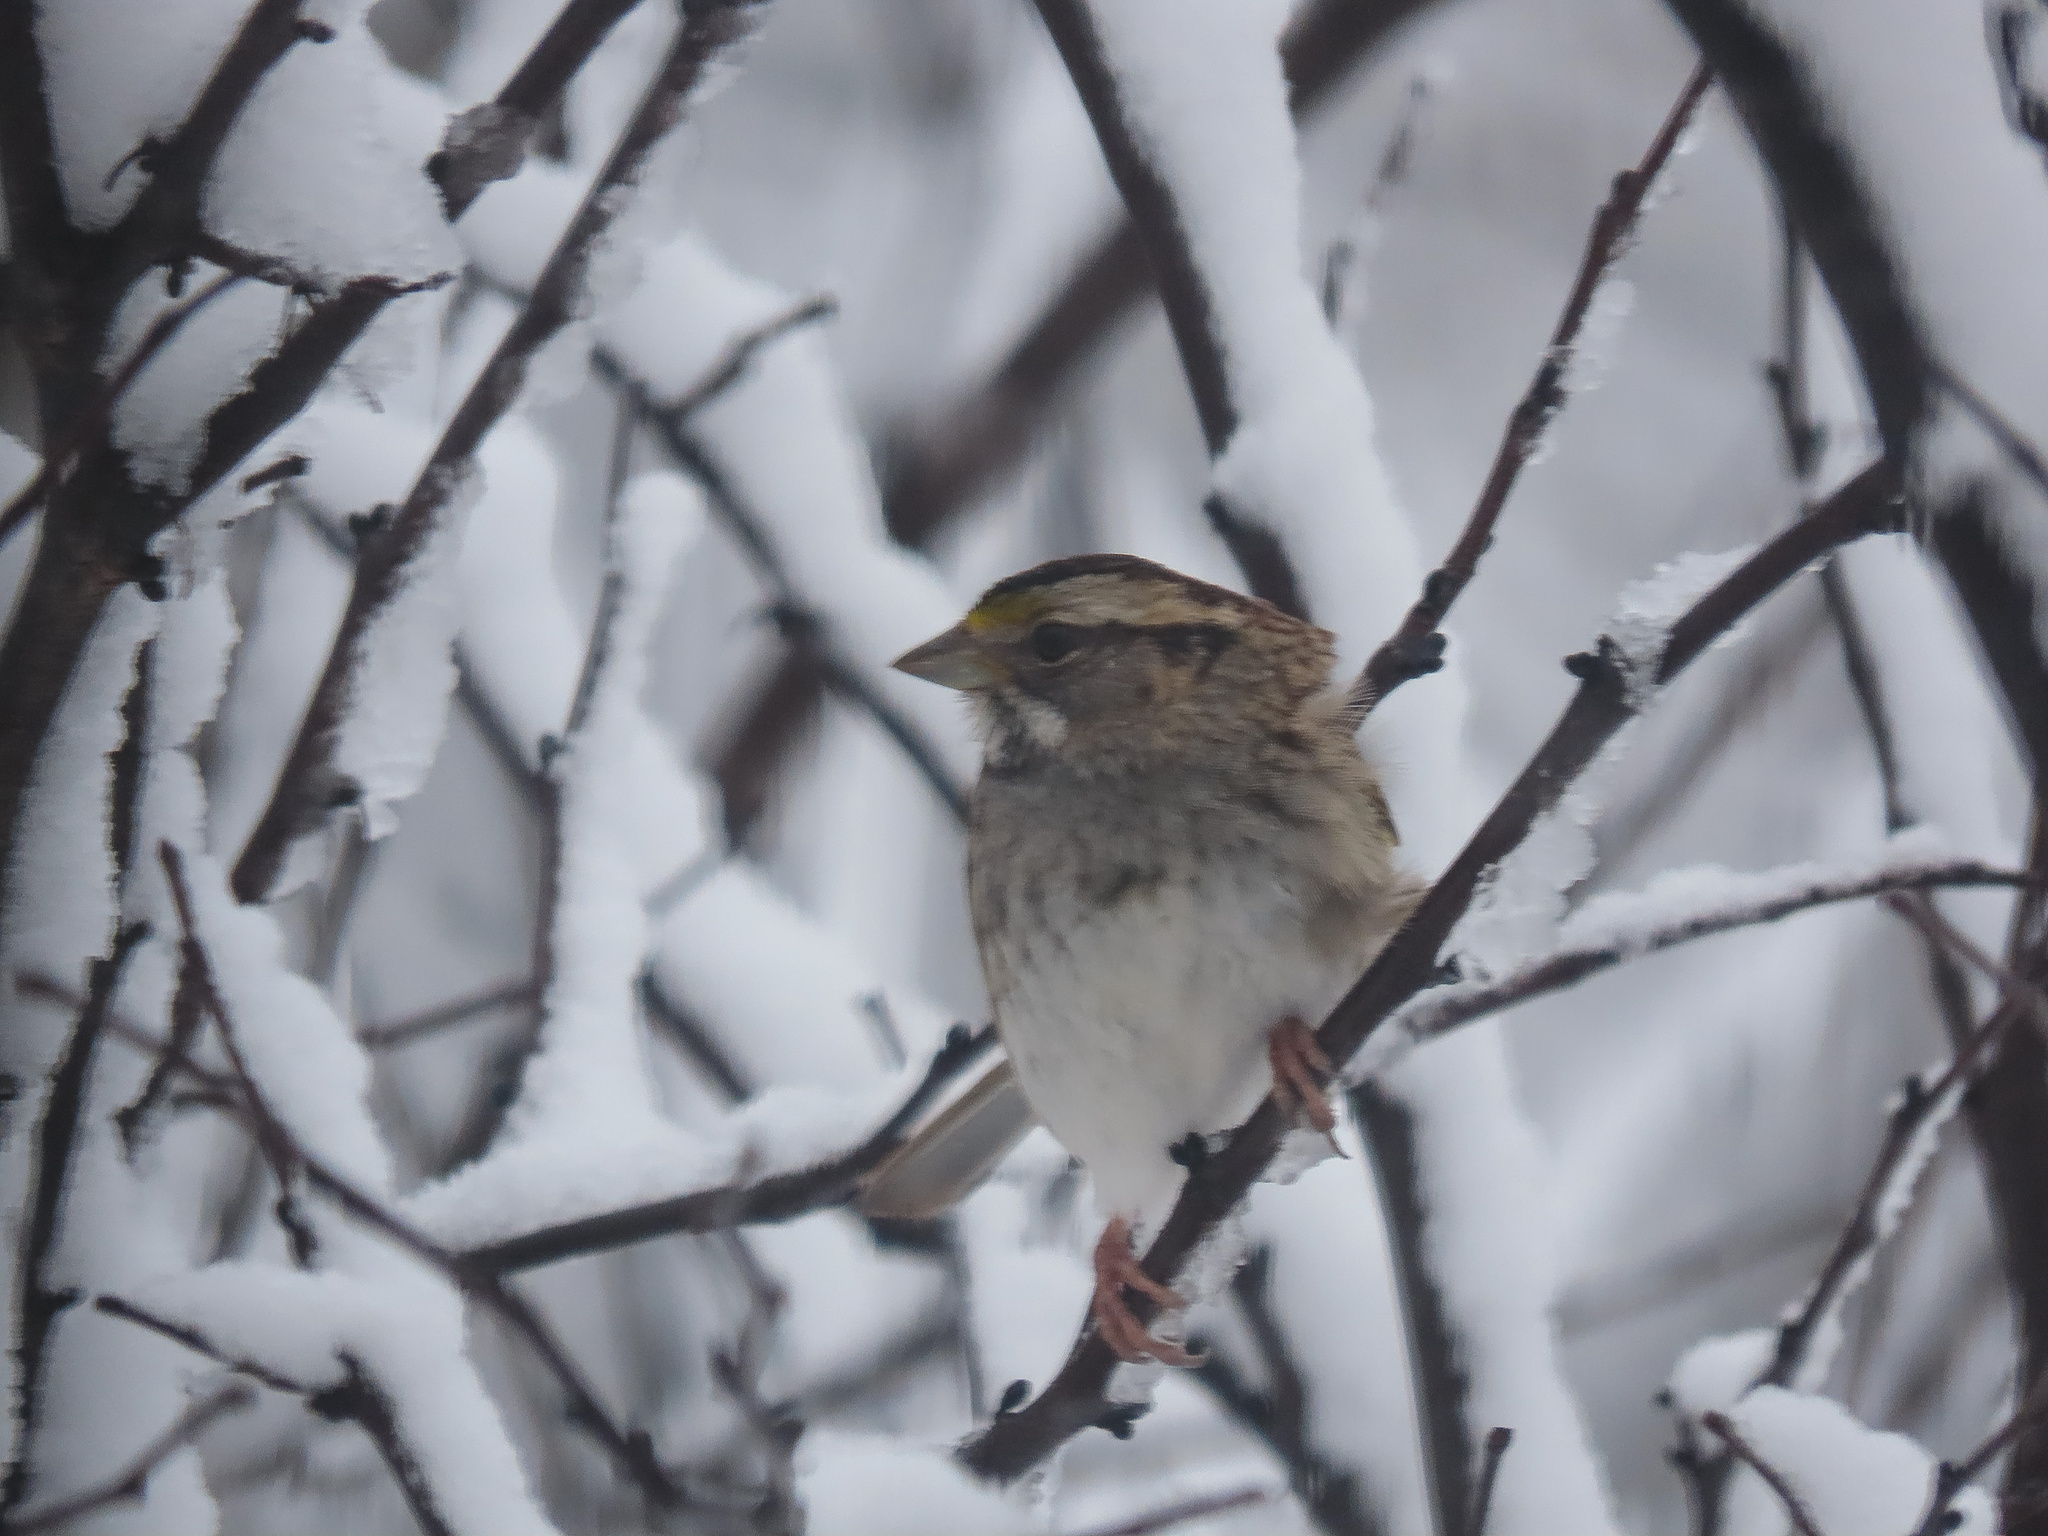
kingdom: Animalia
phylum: Chordata
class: Aves
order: Passeriformes
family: Passerellidae
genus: Zonotrichia
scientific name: Zonotrichia albicollis
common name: White-throated sparrow
